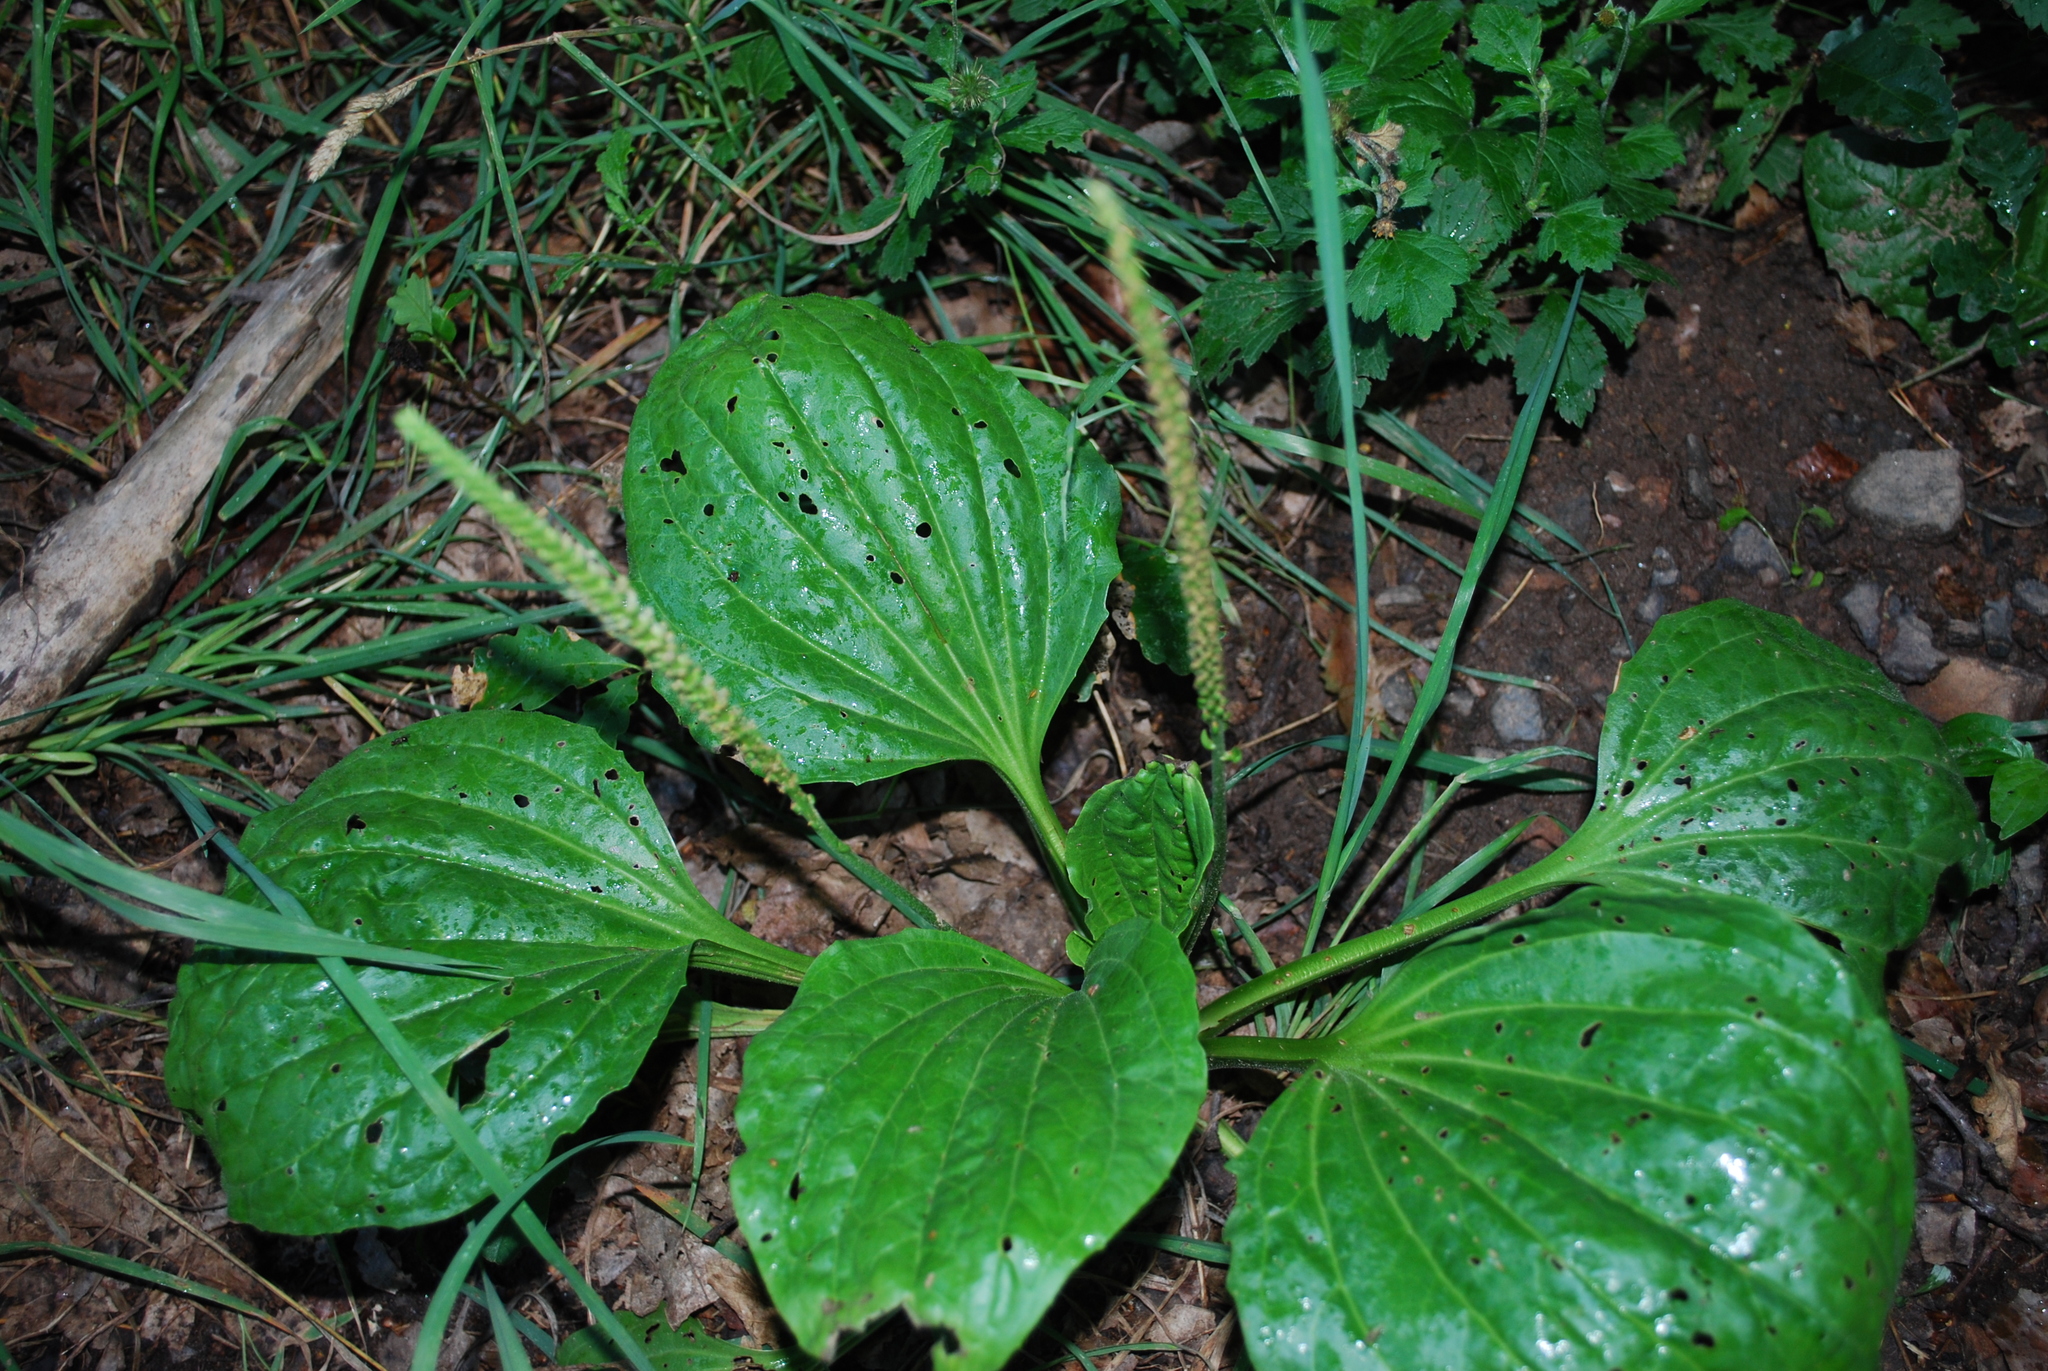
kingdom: Plantae
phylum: Tracheophyta
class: Magnoliopsida
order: Lamiales
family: Plantaginaceae
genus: Plantago
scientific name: Plantago major
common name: Common plantain
